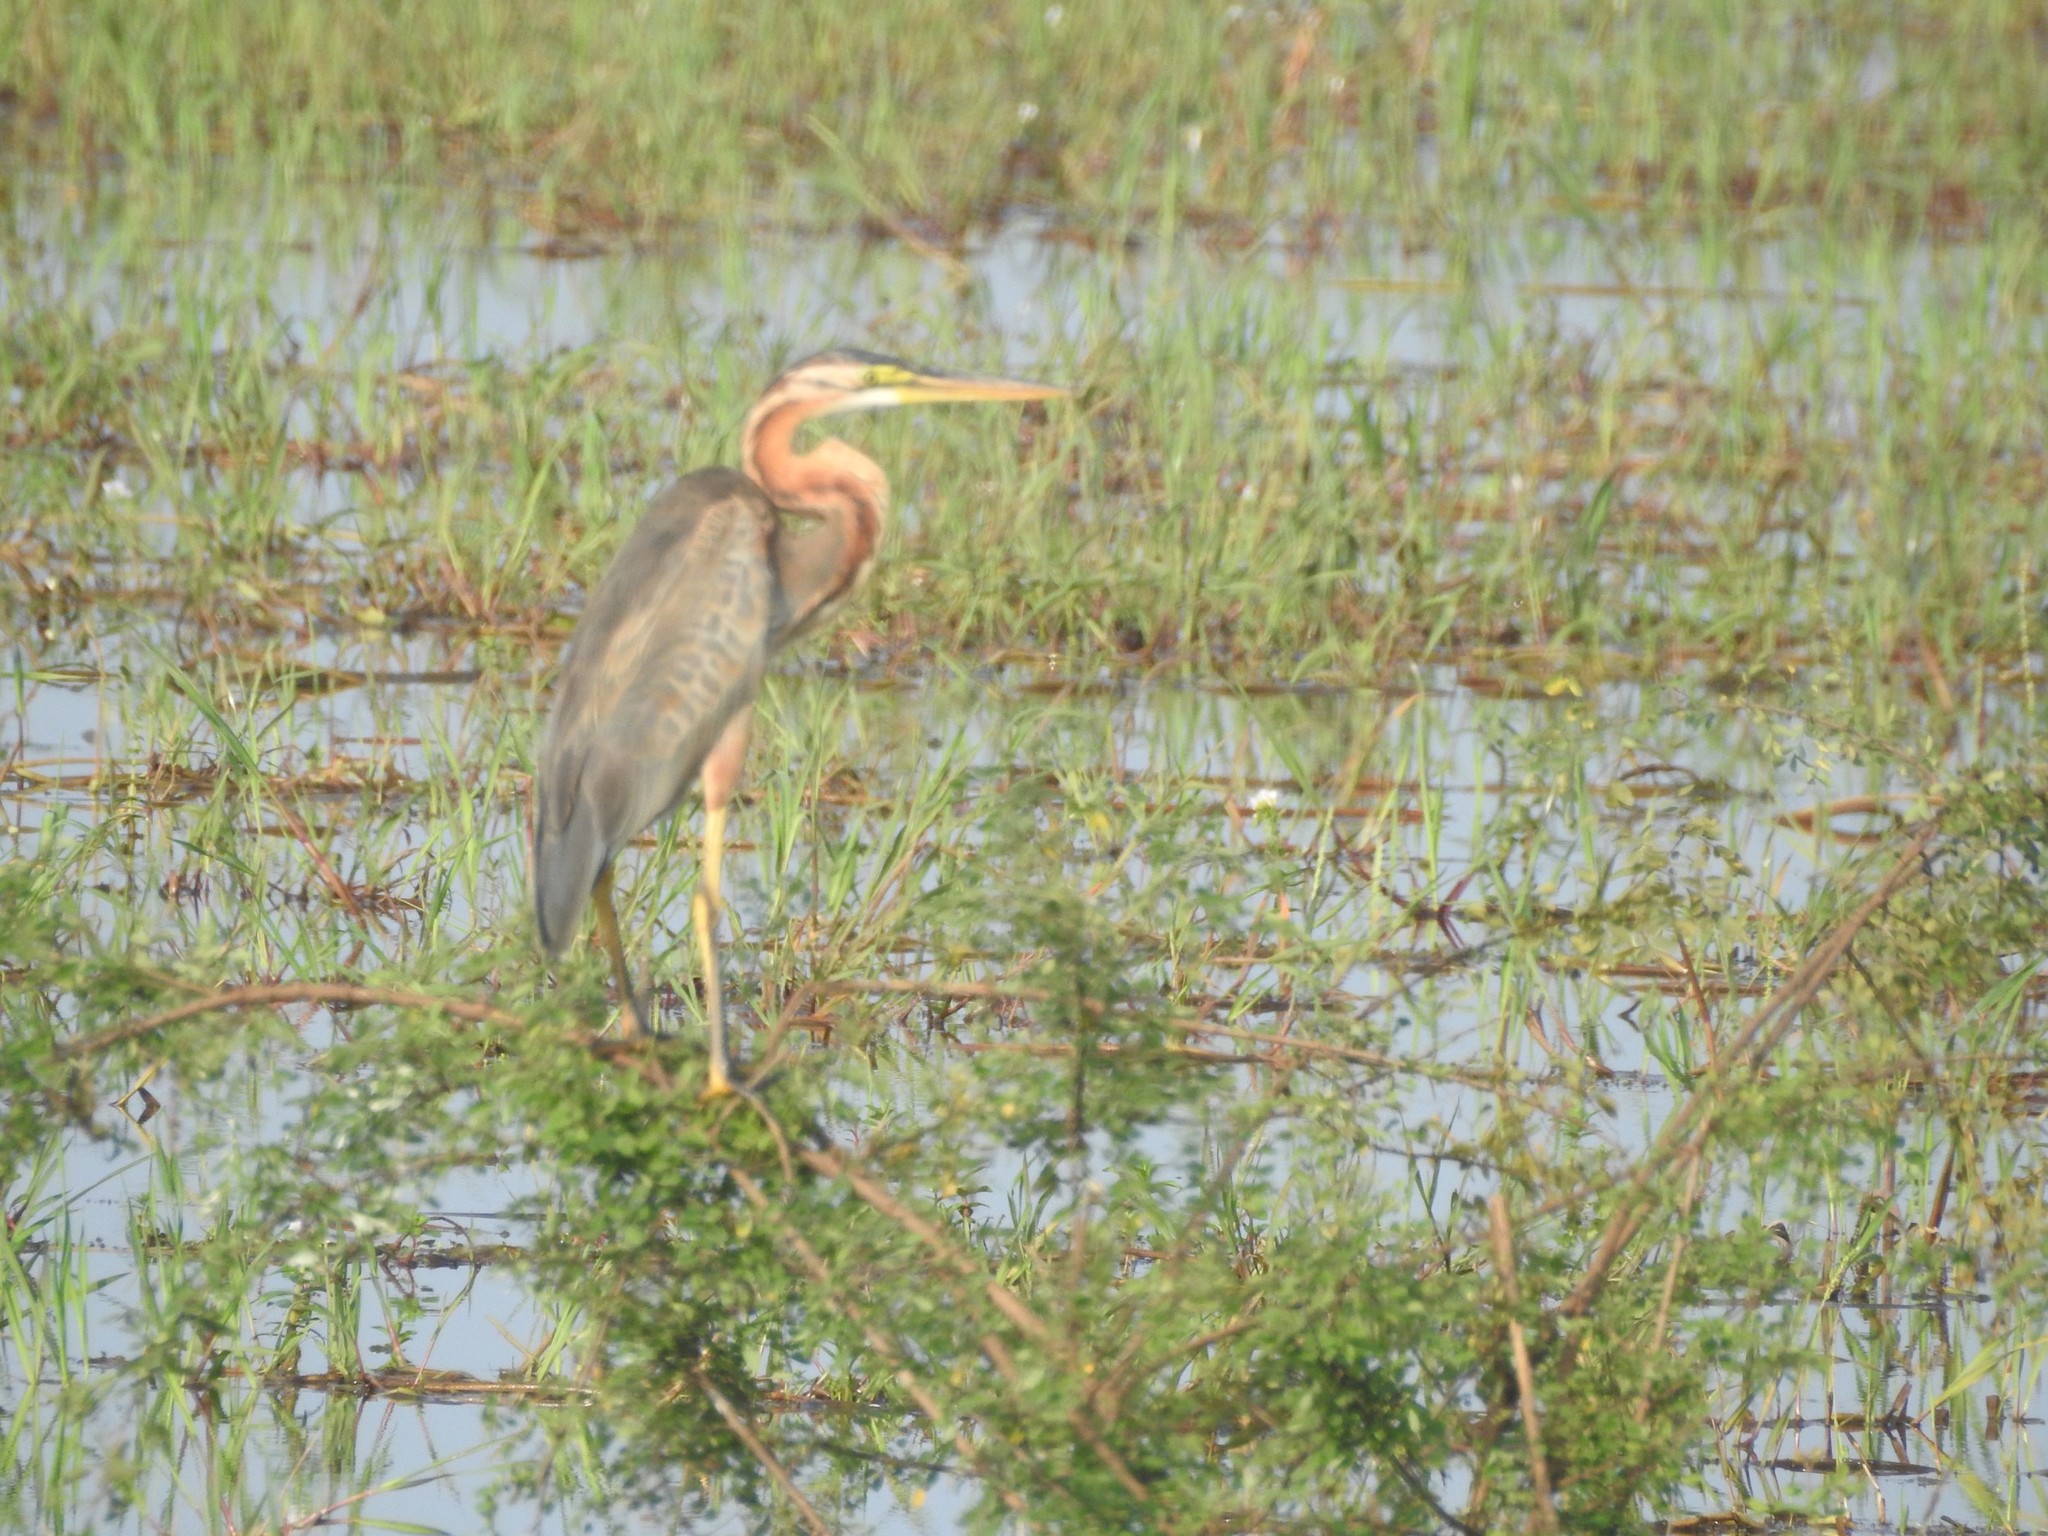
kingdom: Animalia
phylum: Chordata
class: Aves
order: Pelecaniformes
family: Ardeidae
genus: Ardea
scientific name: Ardea purpurea
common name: Purple heron
